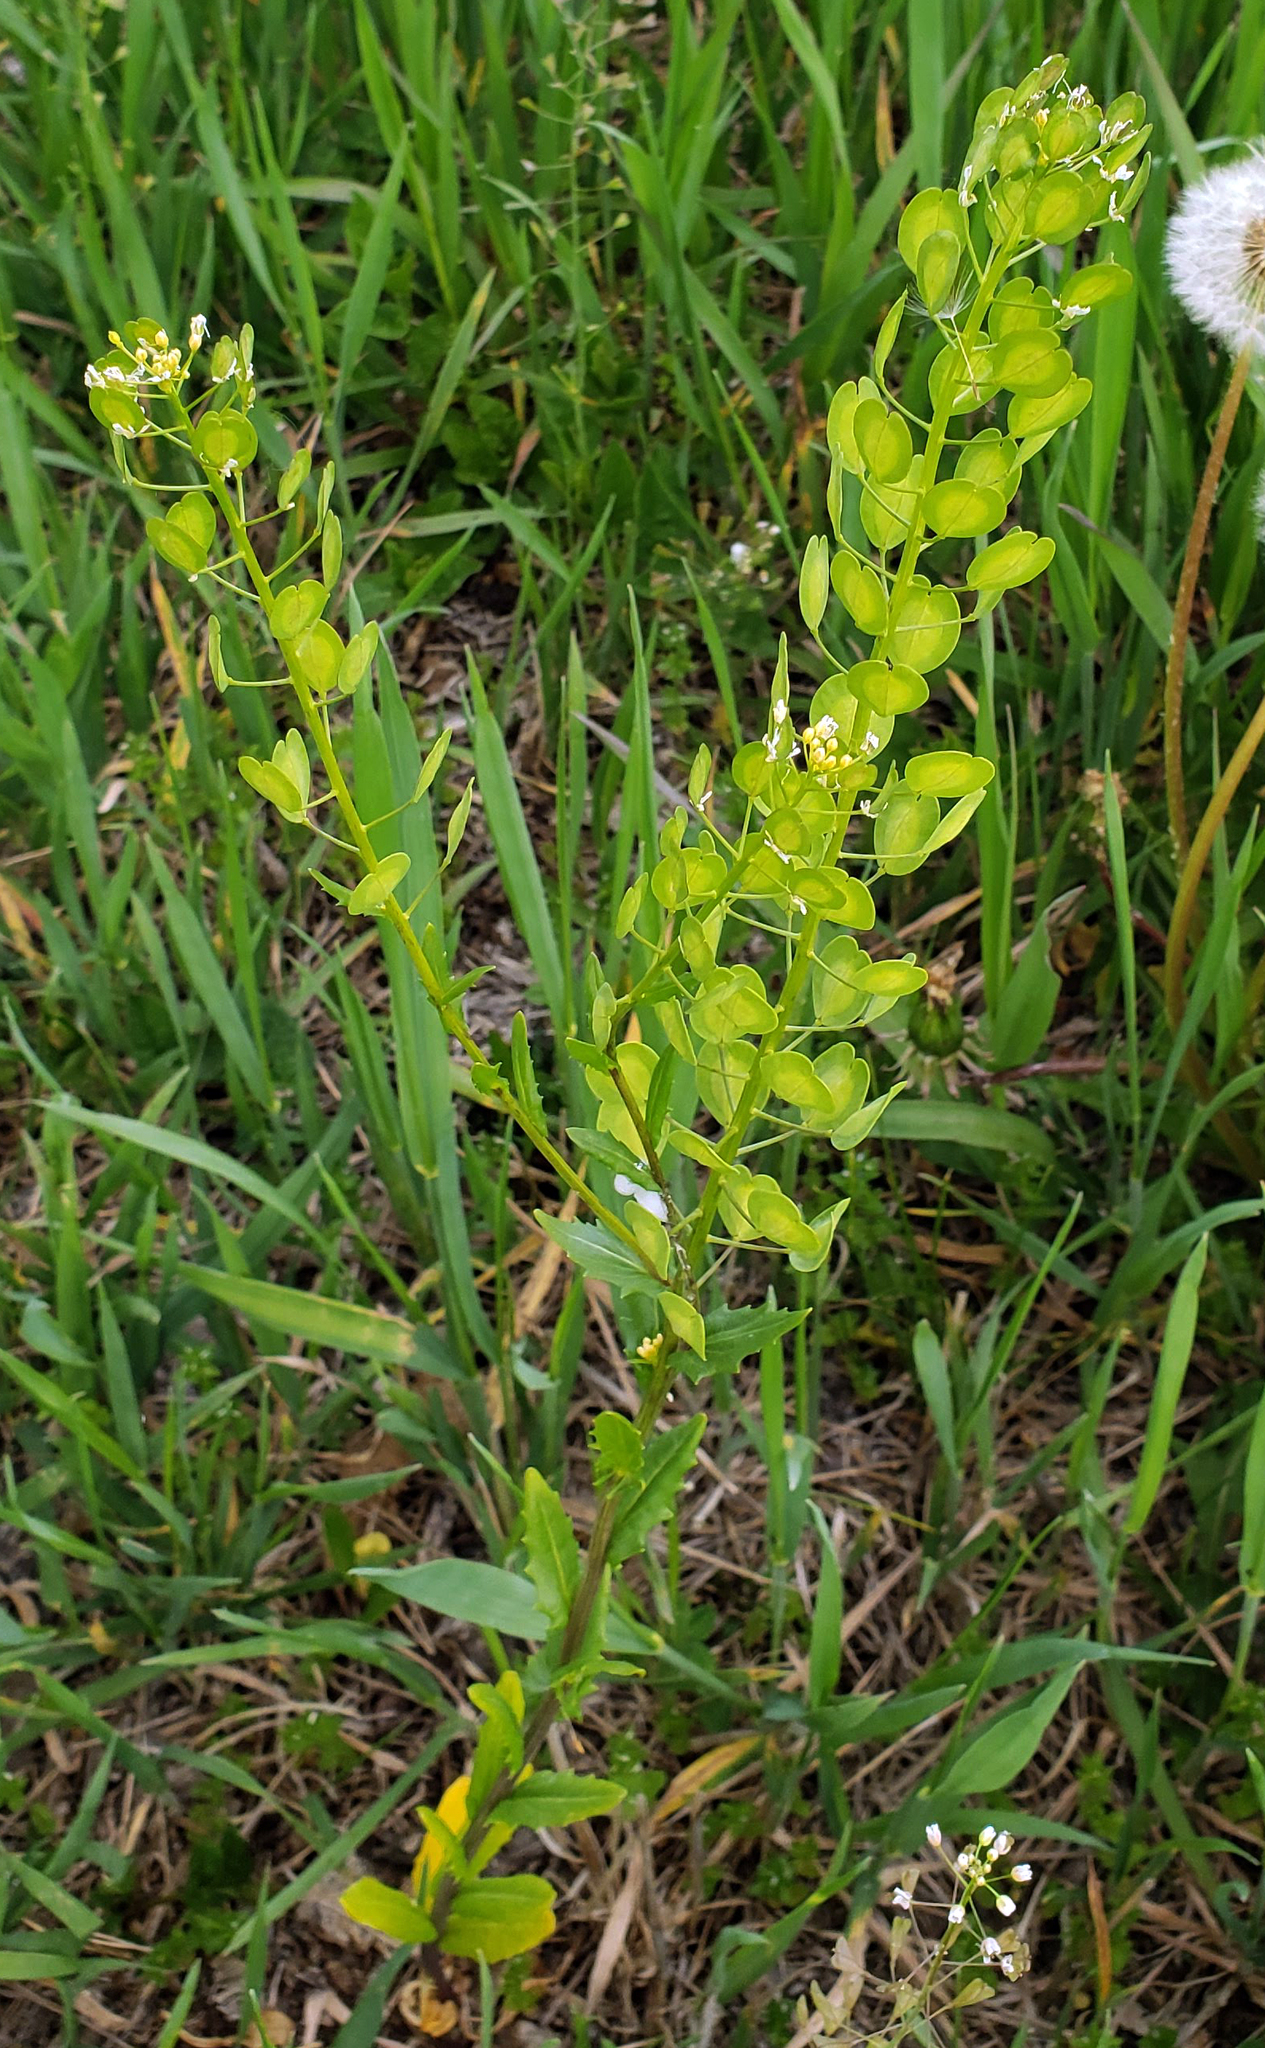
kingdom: Plantae
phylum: Tracheophyta
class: Magnoliopsida
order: Brassicales
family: Brassicaceae
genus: Thlaspi
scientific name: Thlaspi arvense
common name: Field pennycress
